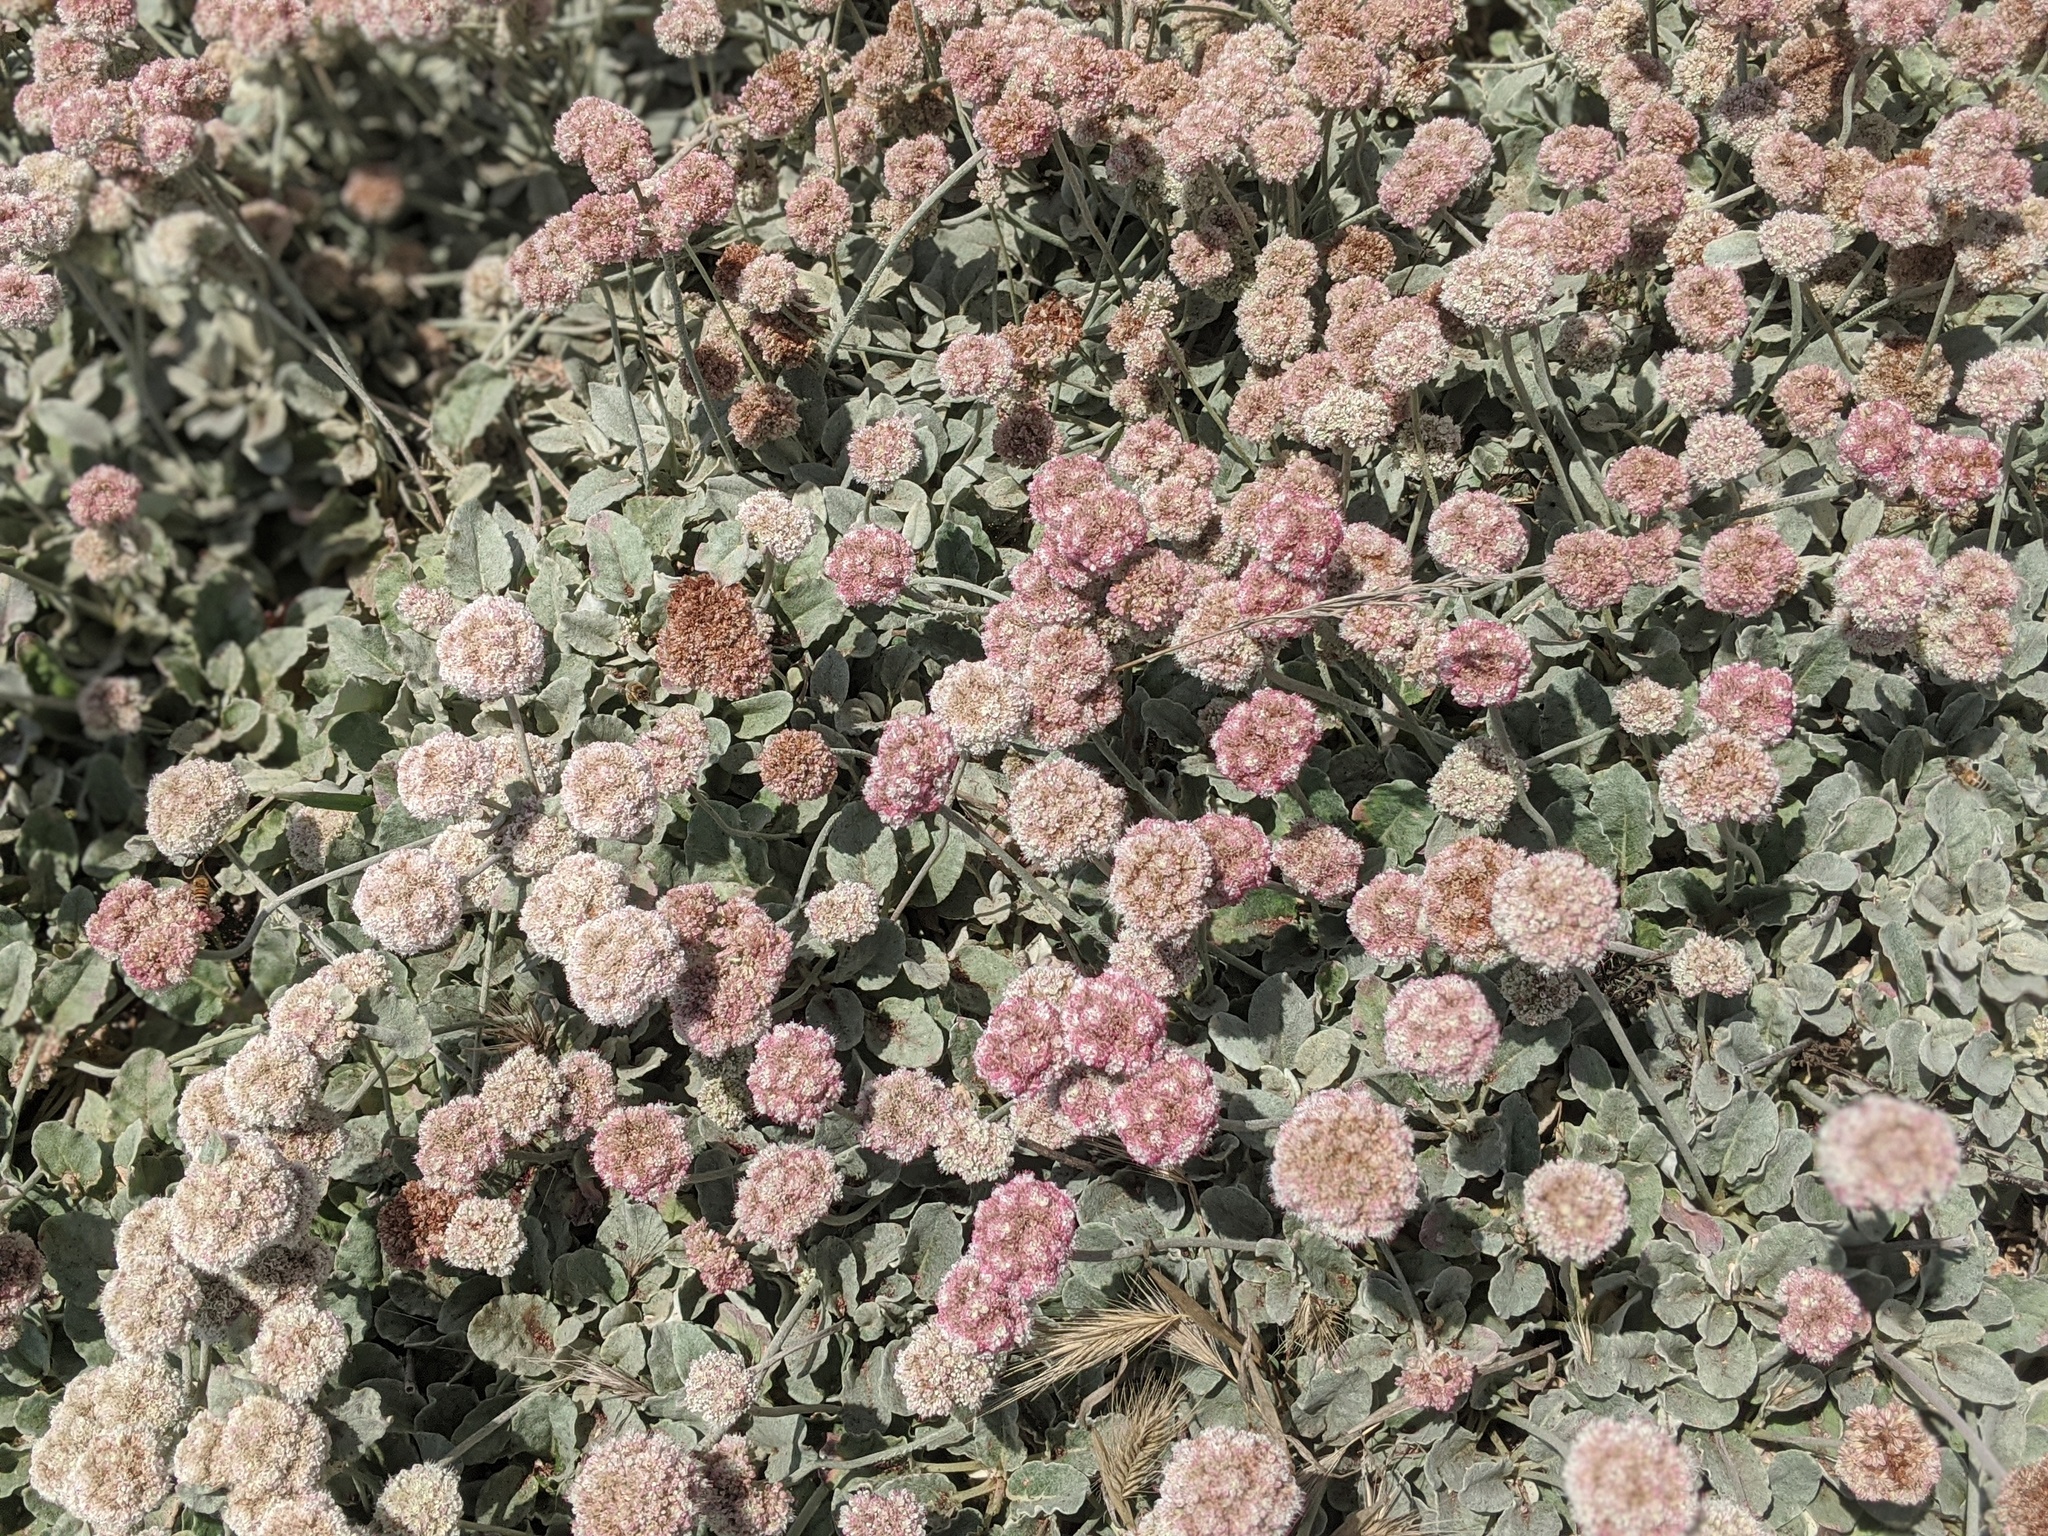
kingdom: Plantae
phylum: Tracheophyta
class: Magnoliopsida
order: Caryophyllales
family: Polygonaceae
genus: Eriogonum
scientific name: Eriogonum latifolium
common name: Seaside wild buckwheat
